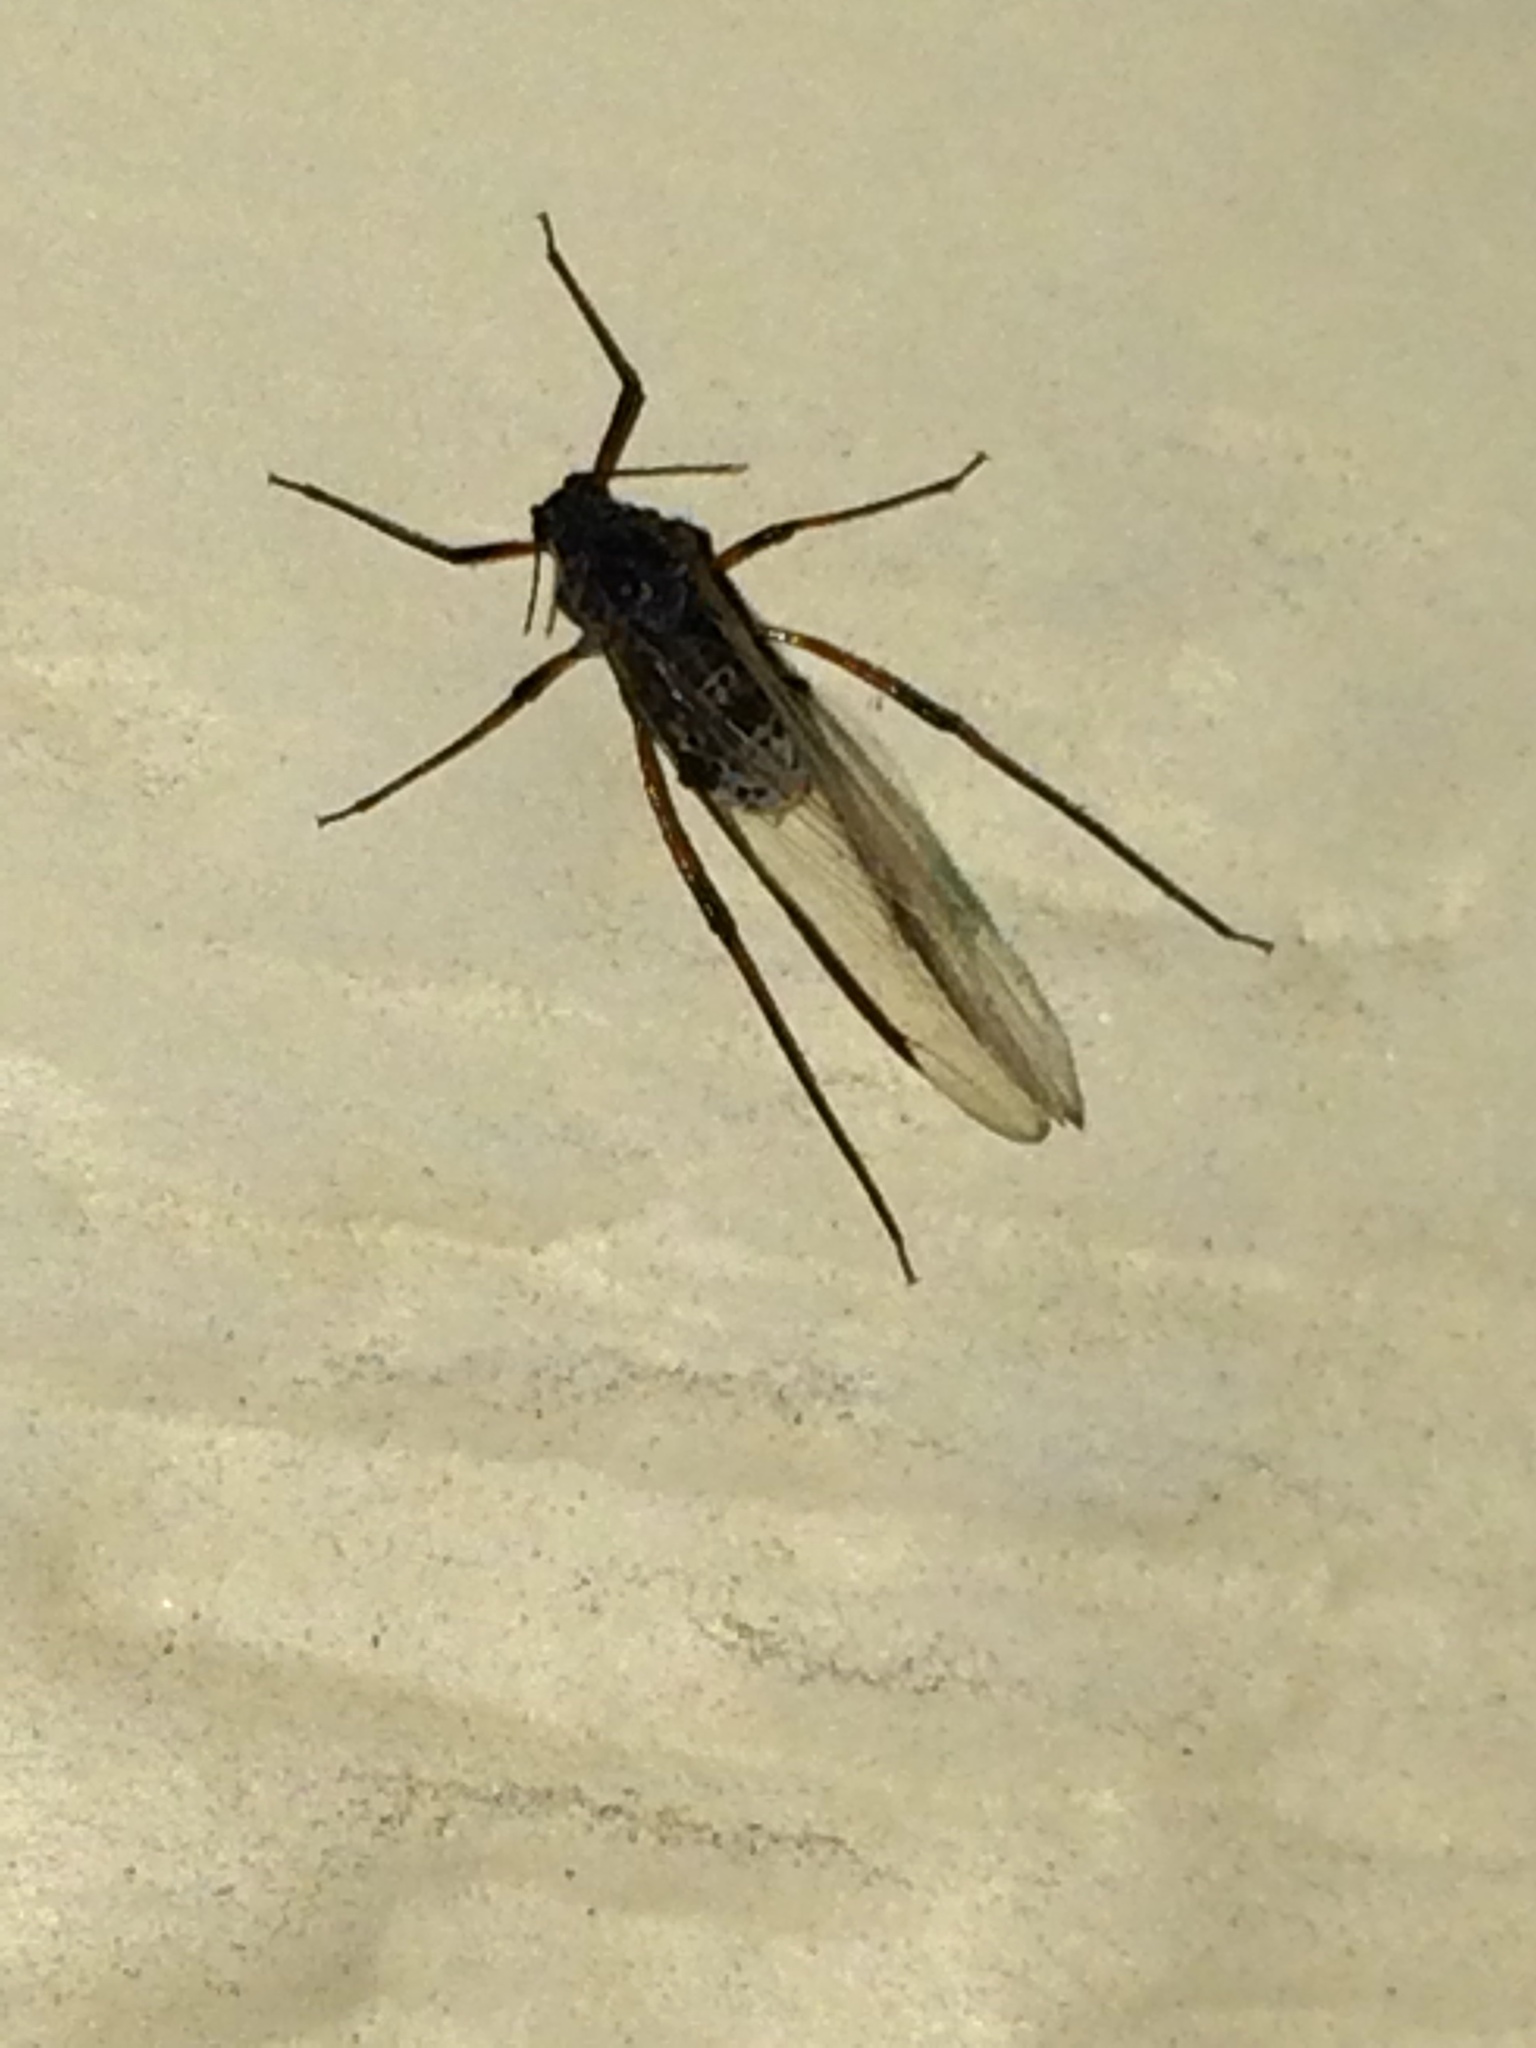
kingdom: Animalia
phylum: Arthropoda
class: Insecta
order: Hemiptera
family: Aphididae
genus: Tuberolachnus
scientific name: Tuberolachnus salignus
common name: Giant willow aphid
